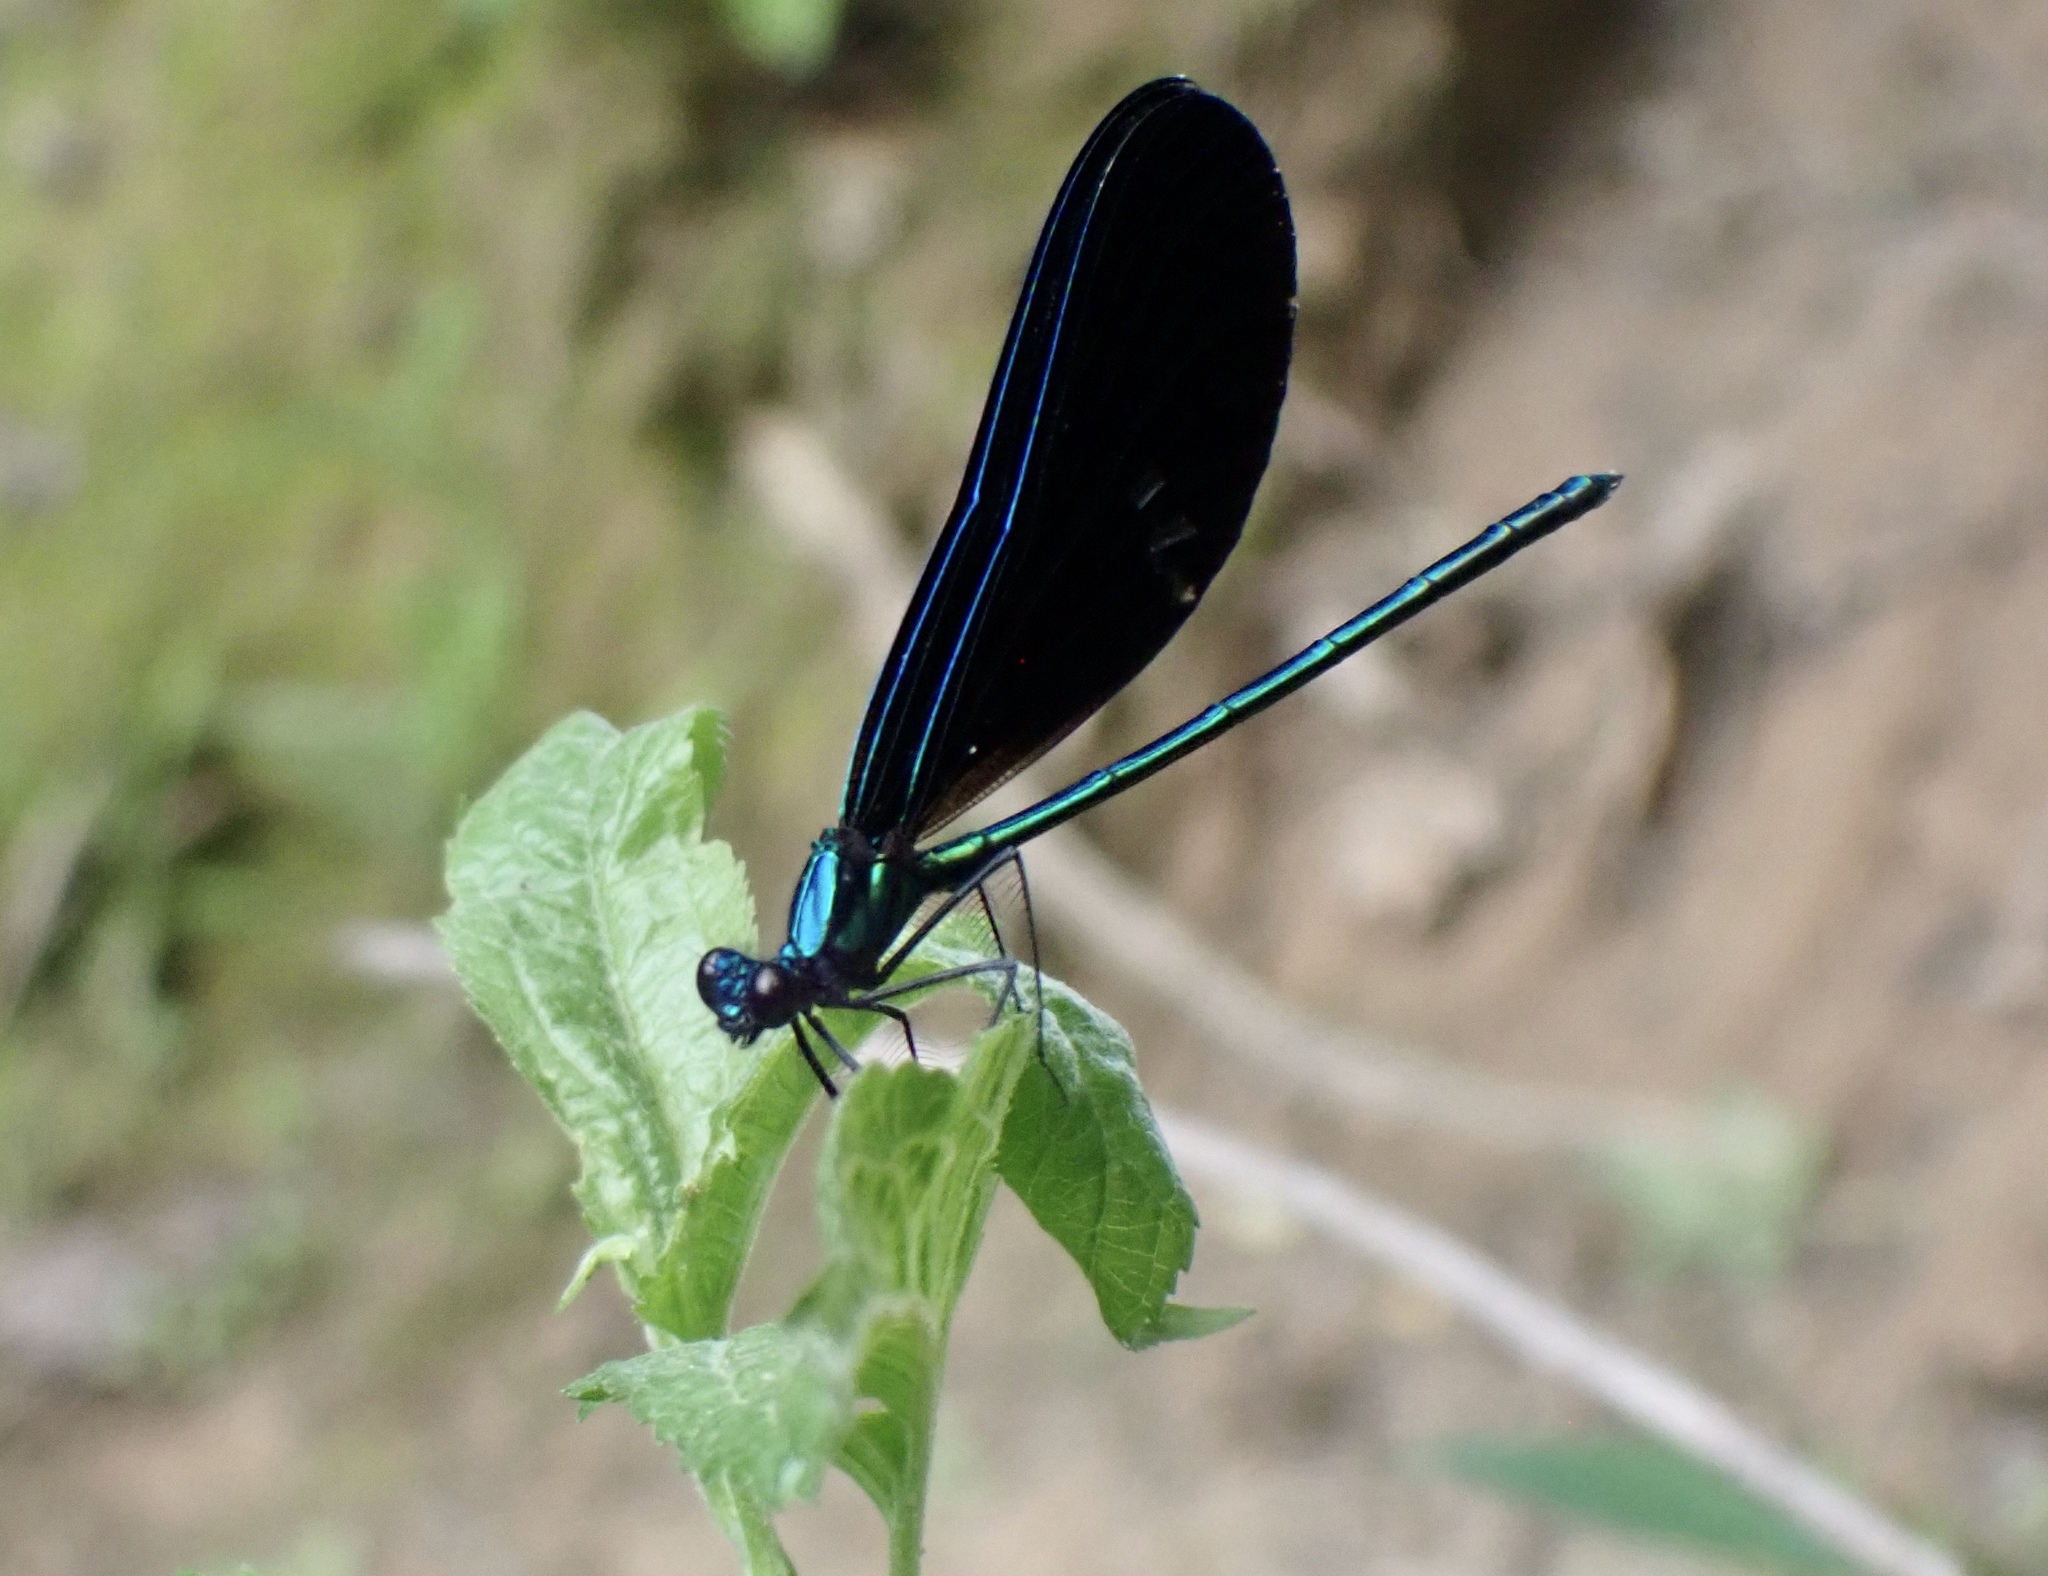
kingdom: Animalia
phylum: Arthropoda
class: Insecta
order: Odonata
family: Calopterygidae
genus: Calopteryx
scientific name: Calopteryx maculata
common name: Ebony jewelwing
